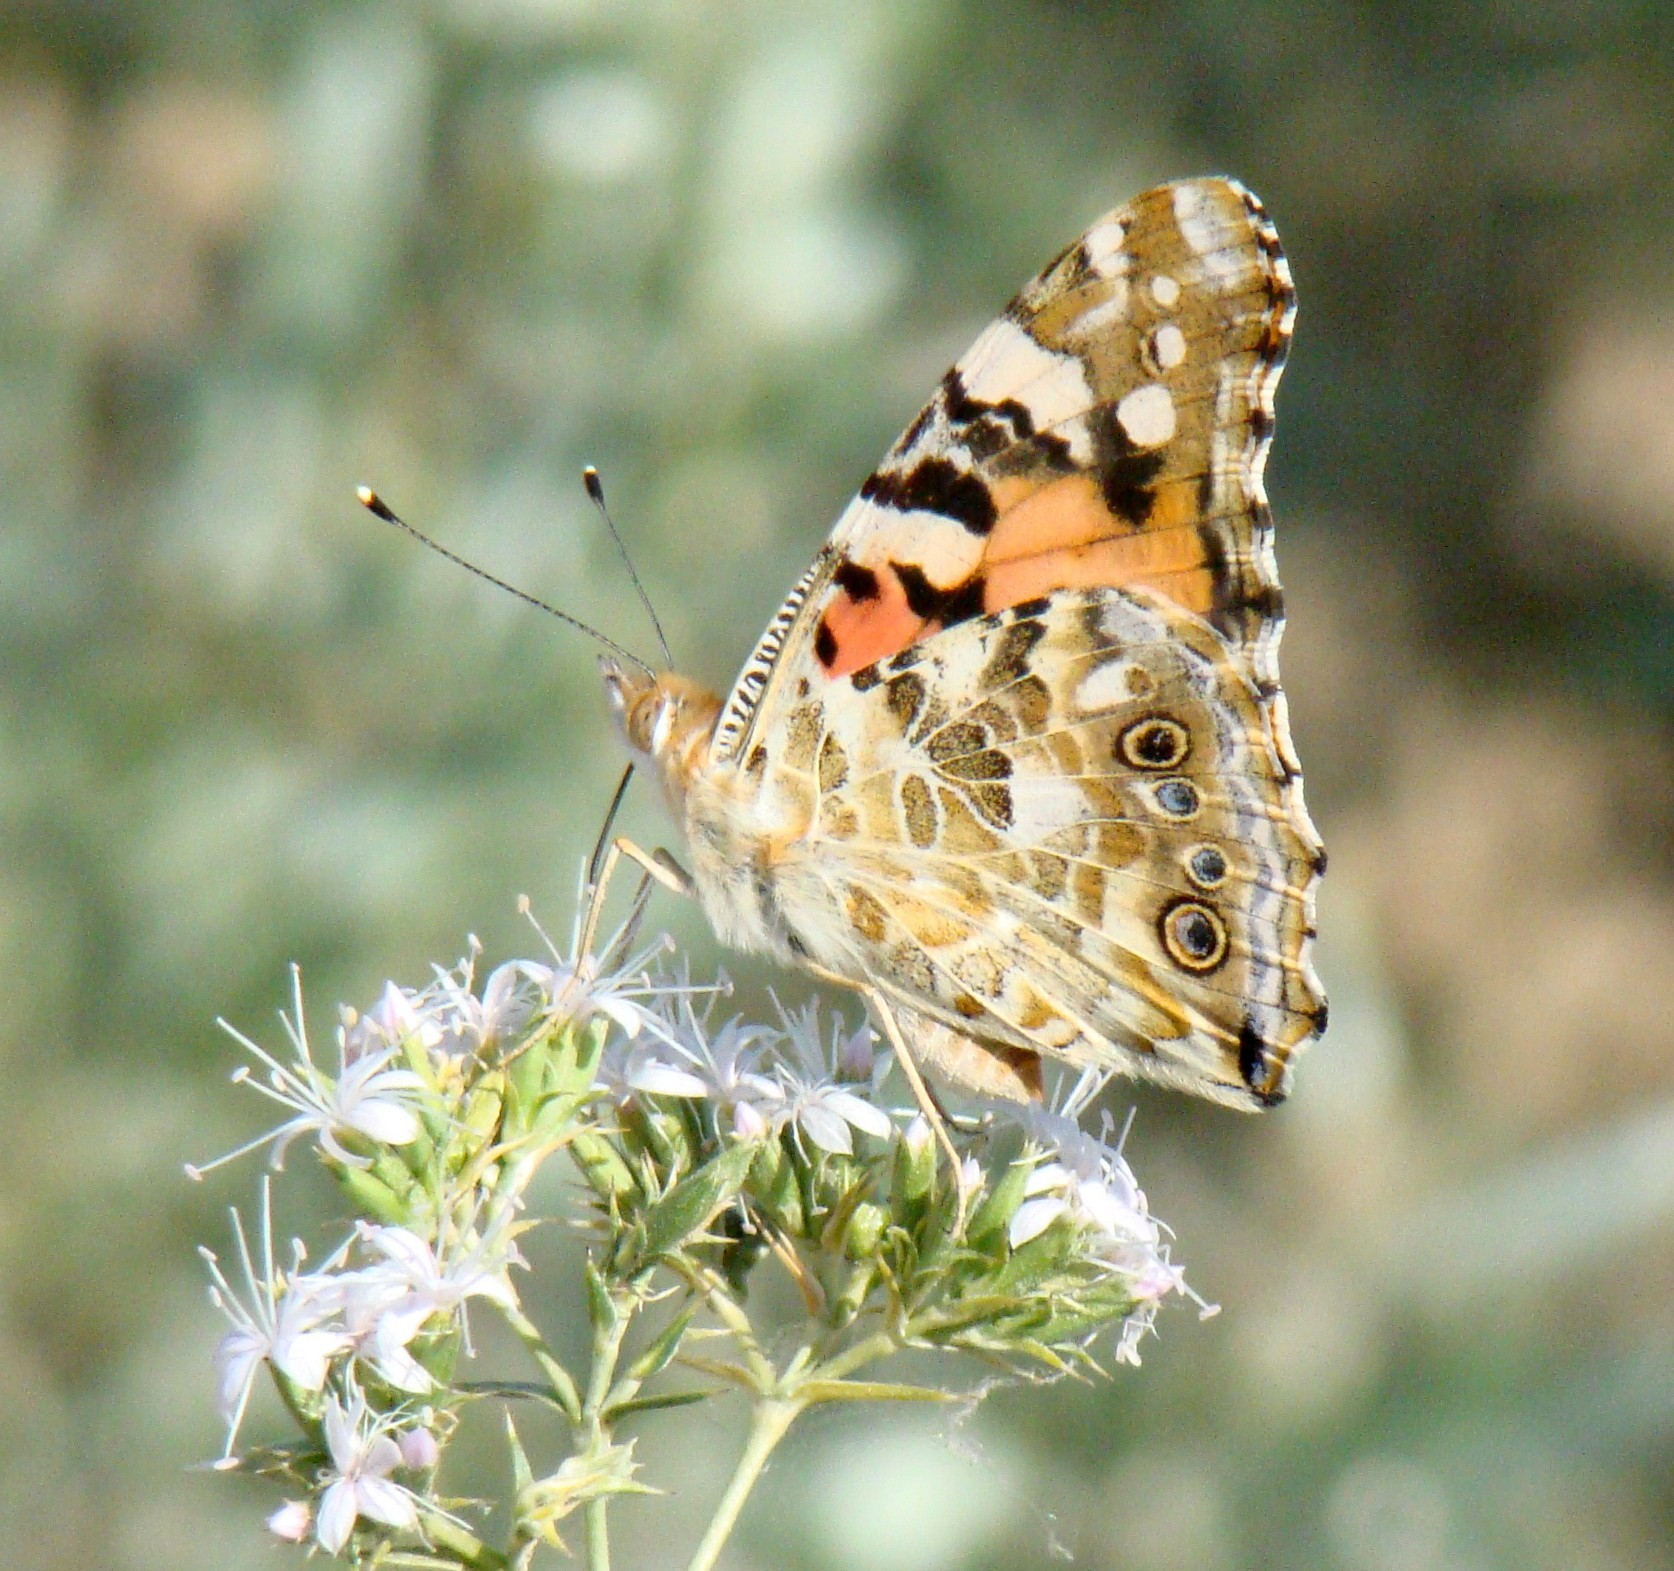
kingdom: Animalia
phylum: Arthropoda
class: Insecta
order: Lepidoptera
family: Nymphalidae
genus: Vanessa
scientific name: Vanessa cardui
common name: Painted lady
